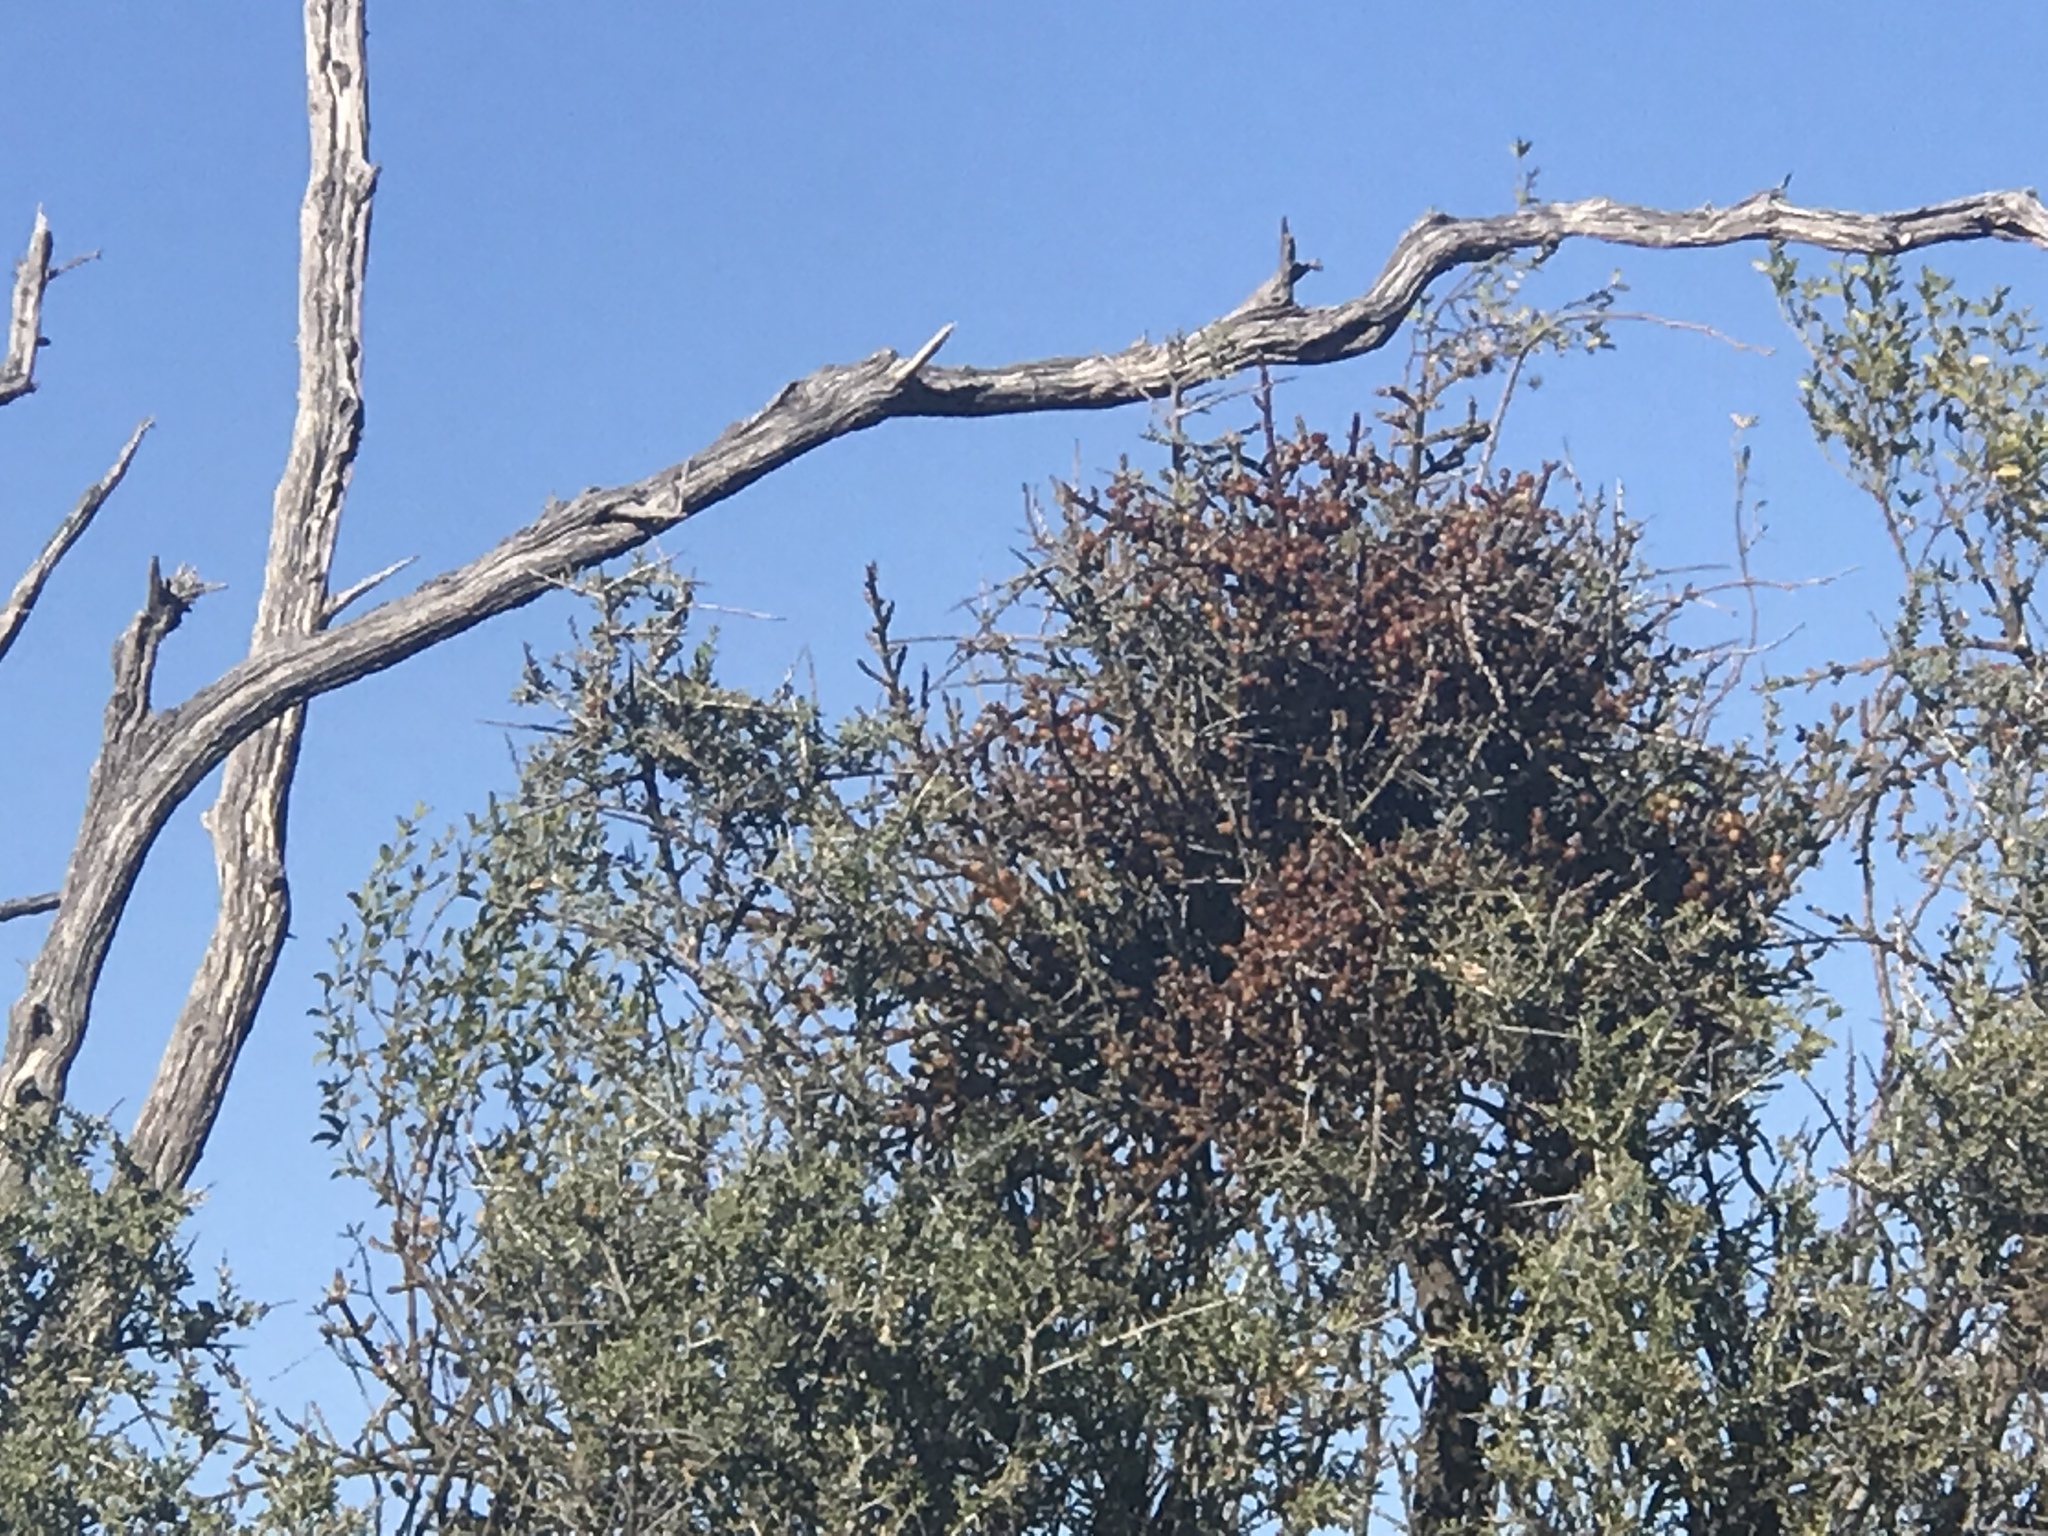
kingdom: Plantae
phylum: Tracheophyta
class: Magnoliopsida
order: Santalales
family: Viscaceae
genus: Phoradendron
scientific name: Phoradendron californicum
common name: Acacia mistletoe
